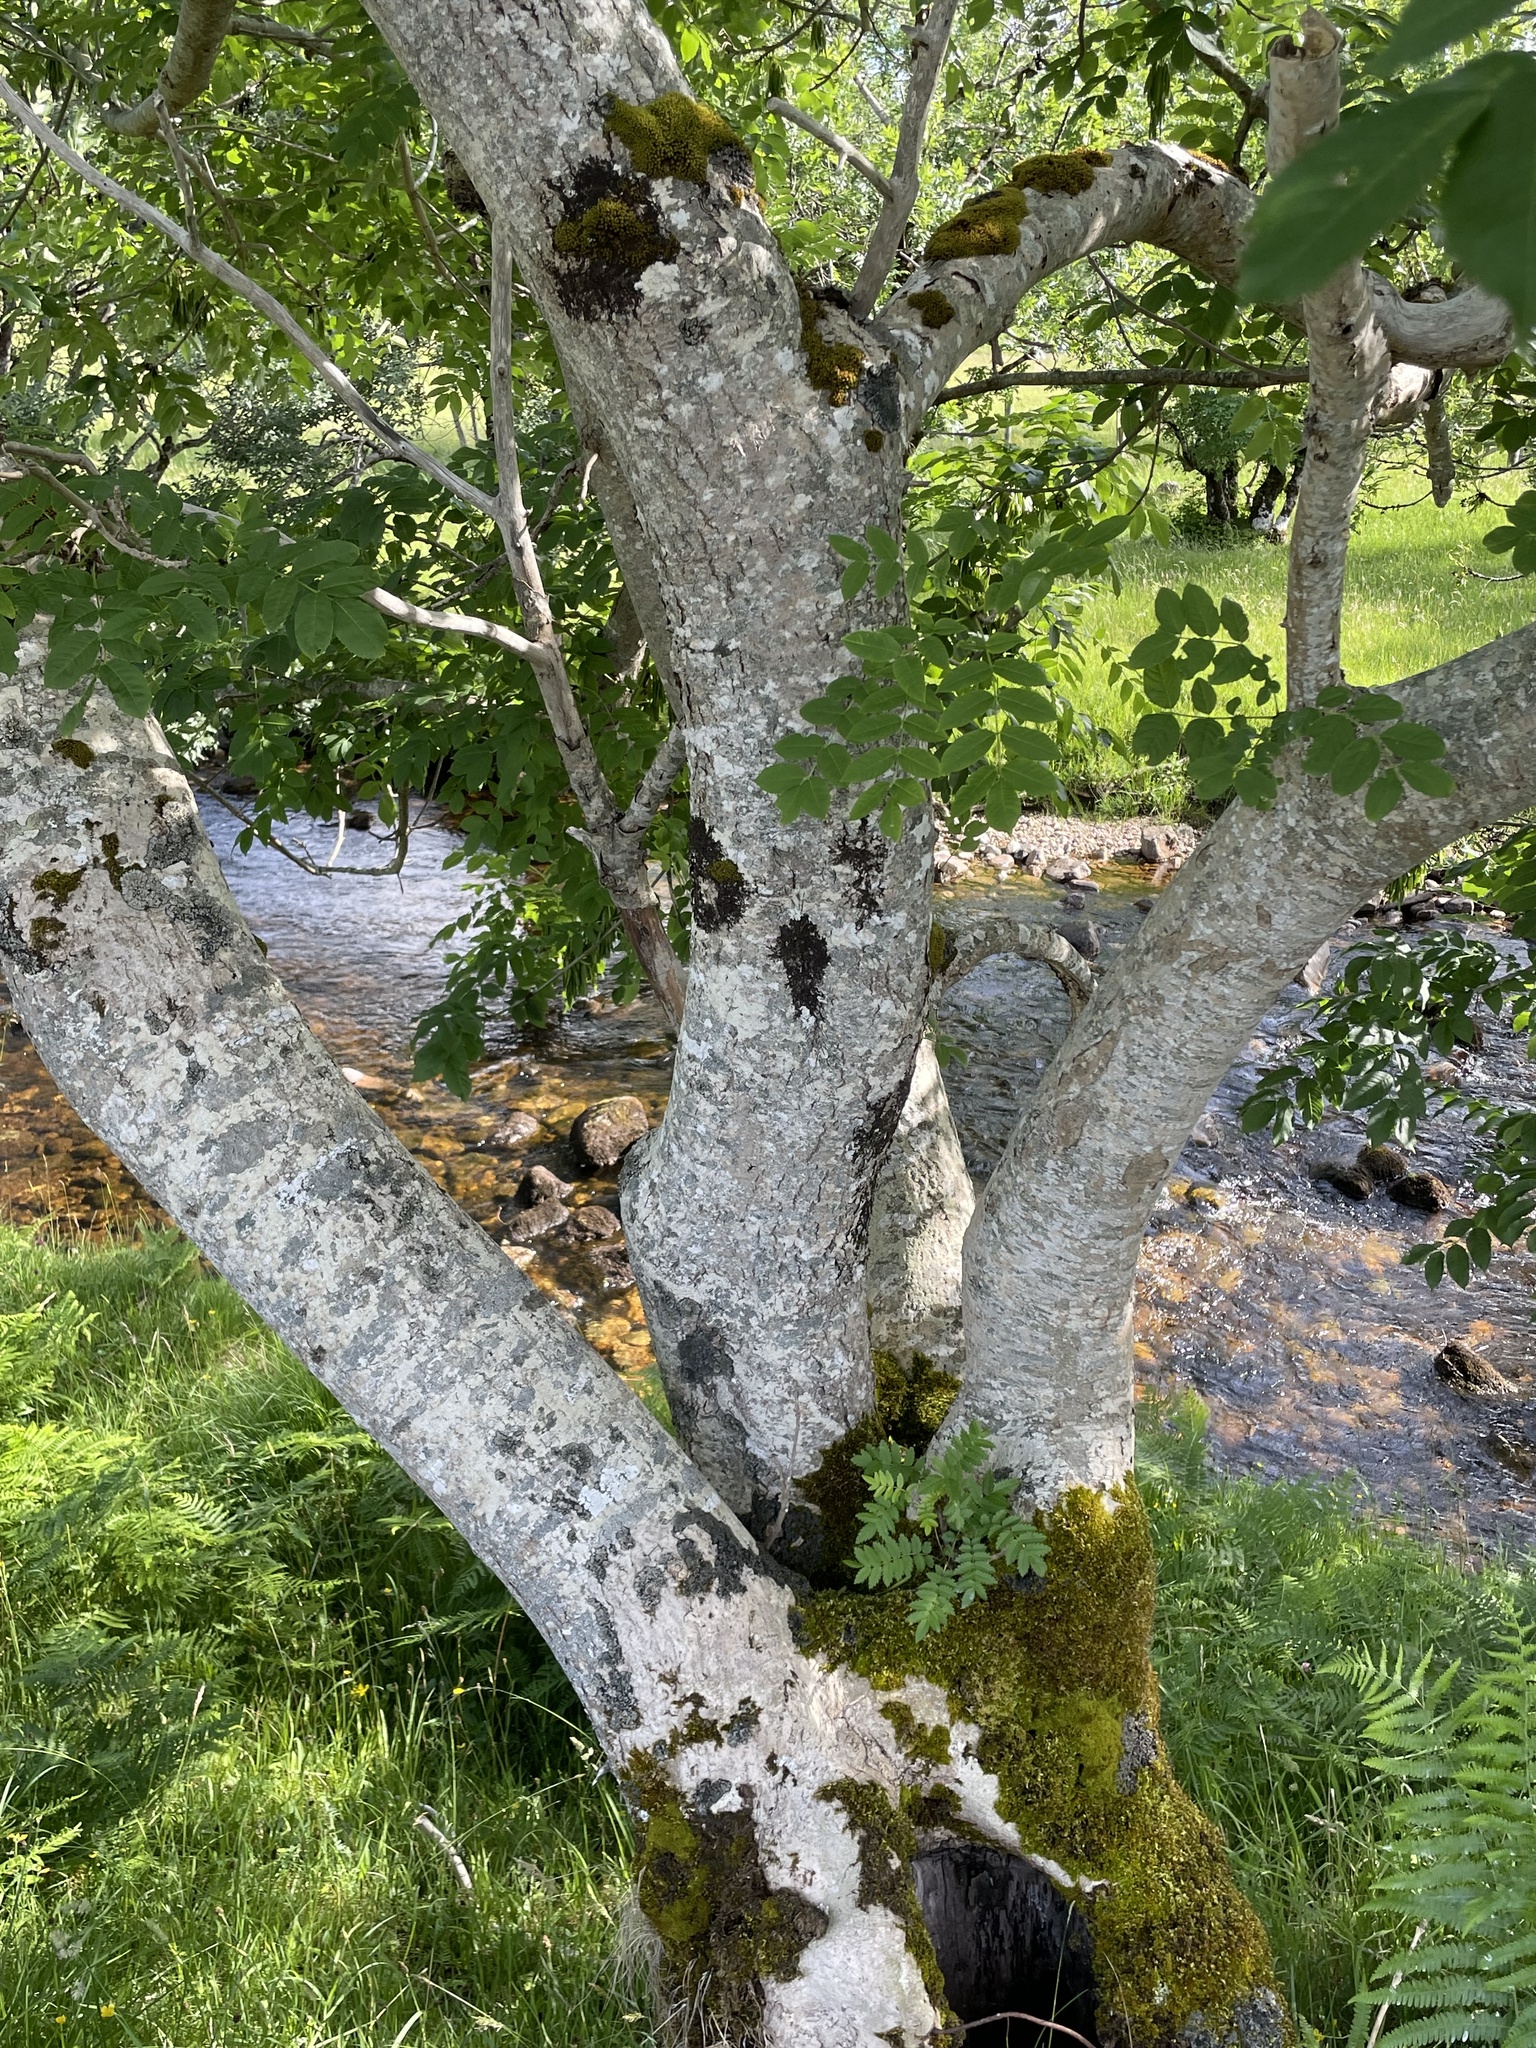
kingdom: Plantae
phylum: Tracheophyta
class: Magnoliopsida
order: Lamiales
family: Oleaceae
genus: Fraxinus
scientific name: Fraxinus excelsior
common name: European ash
